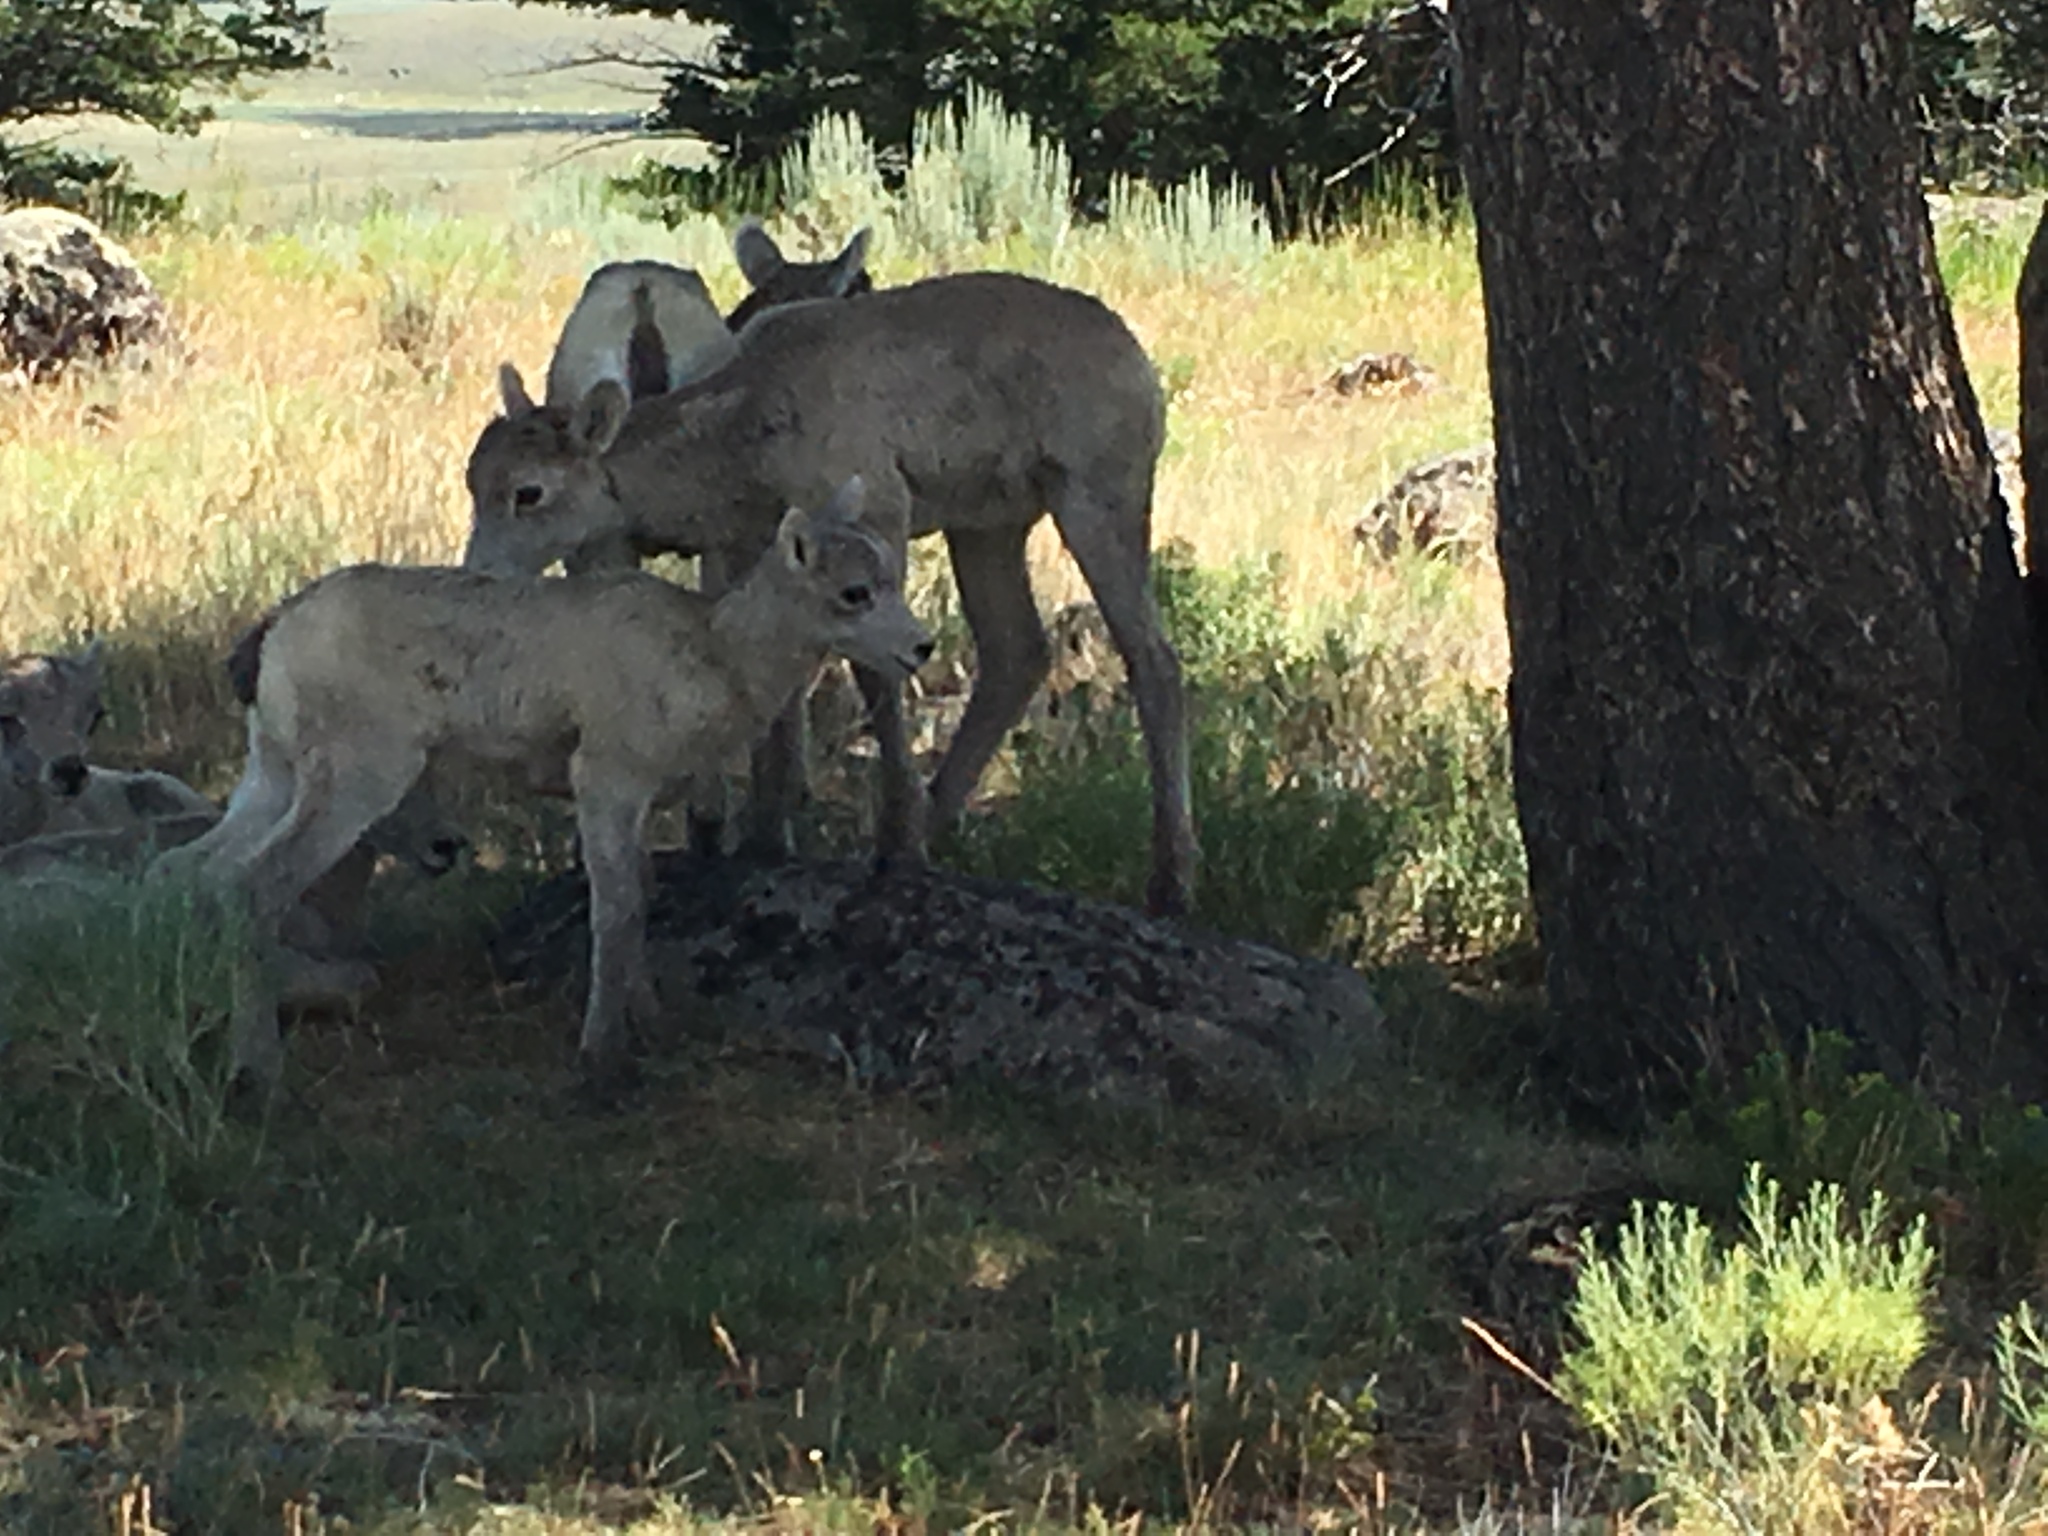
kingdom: Animalia
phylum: Chordata
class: Mammalia
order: Artiodactyla
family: Bovidae
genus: Ovis
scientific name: Ovis canadensis
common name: Bighorn sheep
